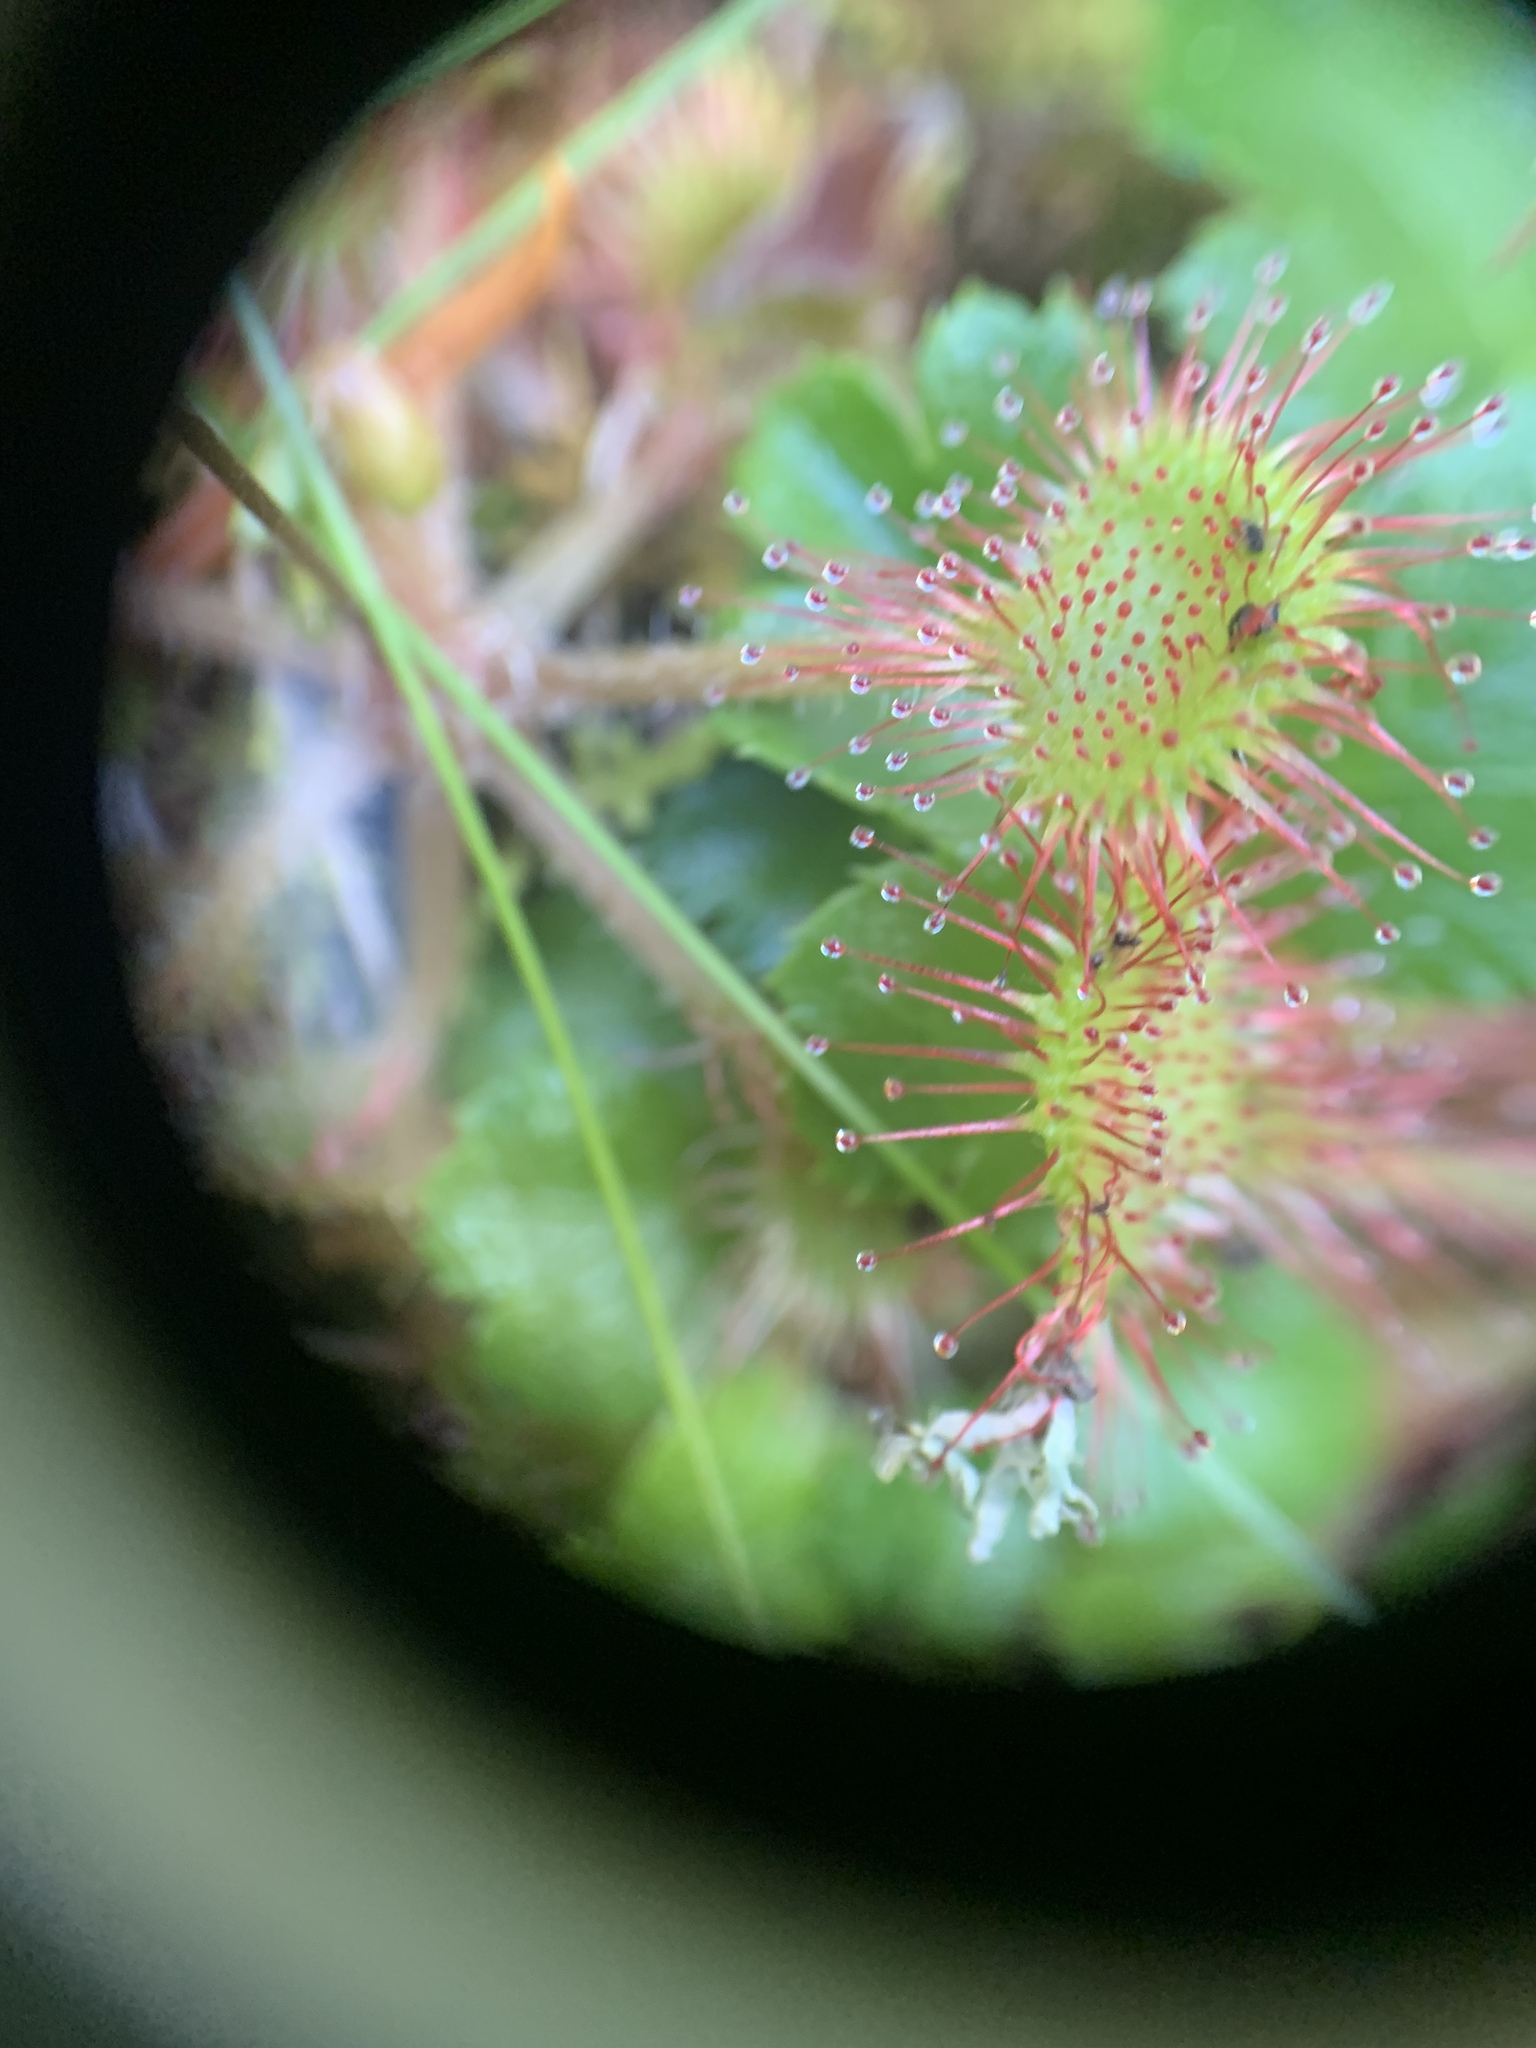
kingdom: Plantae
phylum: Tracheophyta
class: Magnoliopsida
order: Caryophyllales
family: Droseraceae
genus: Drosera
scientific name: Drosera rotundifolia
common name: Round-leaved sundew
